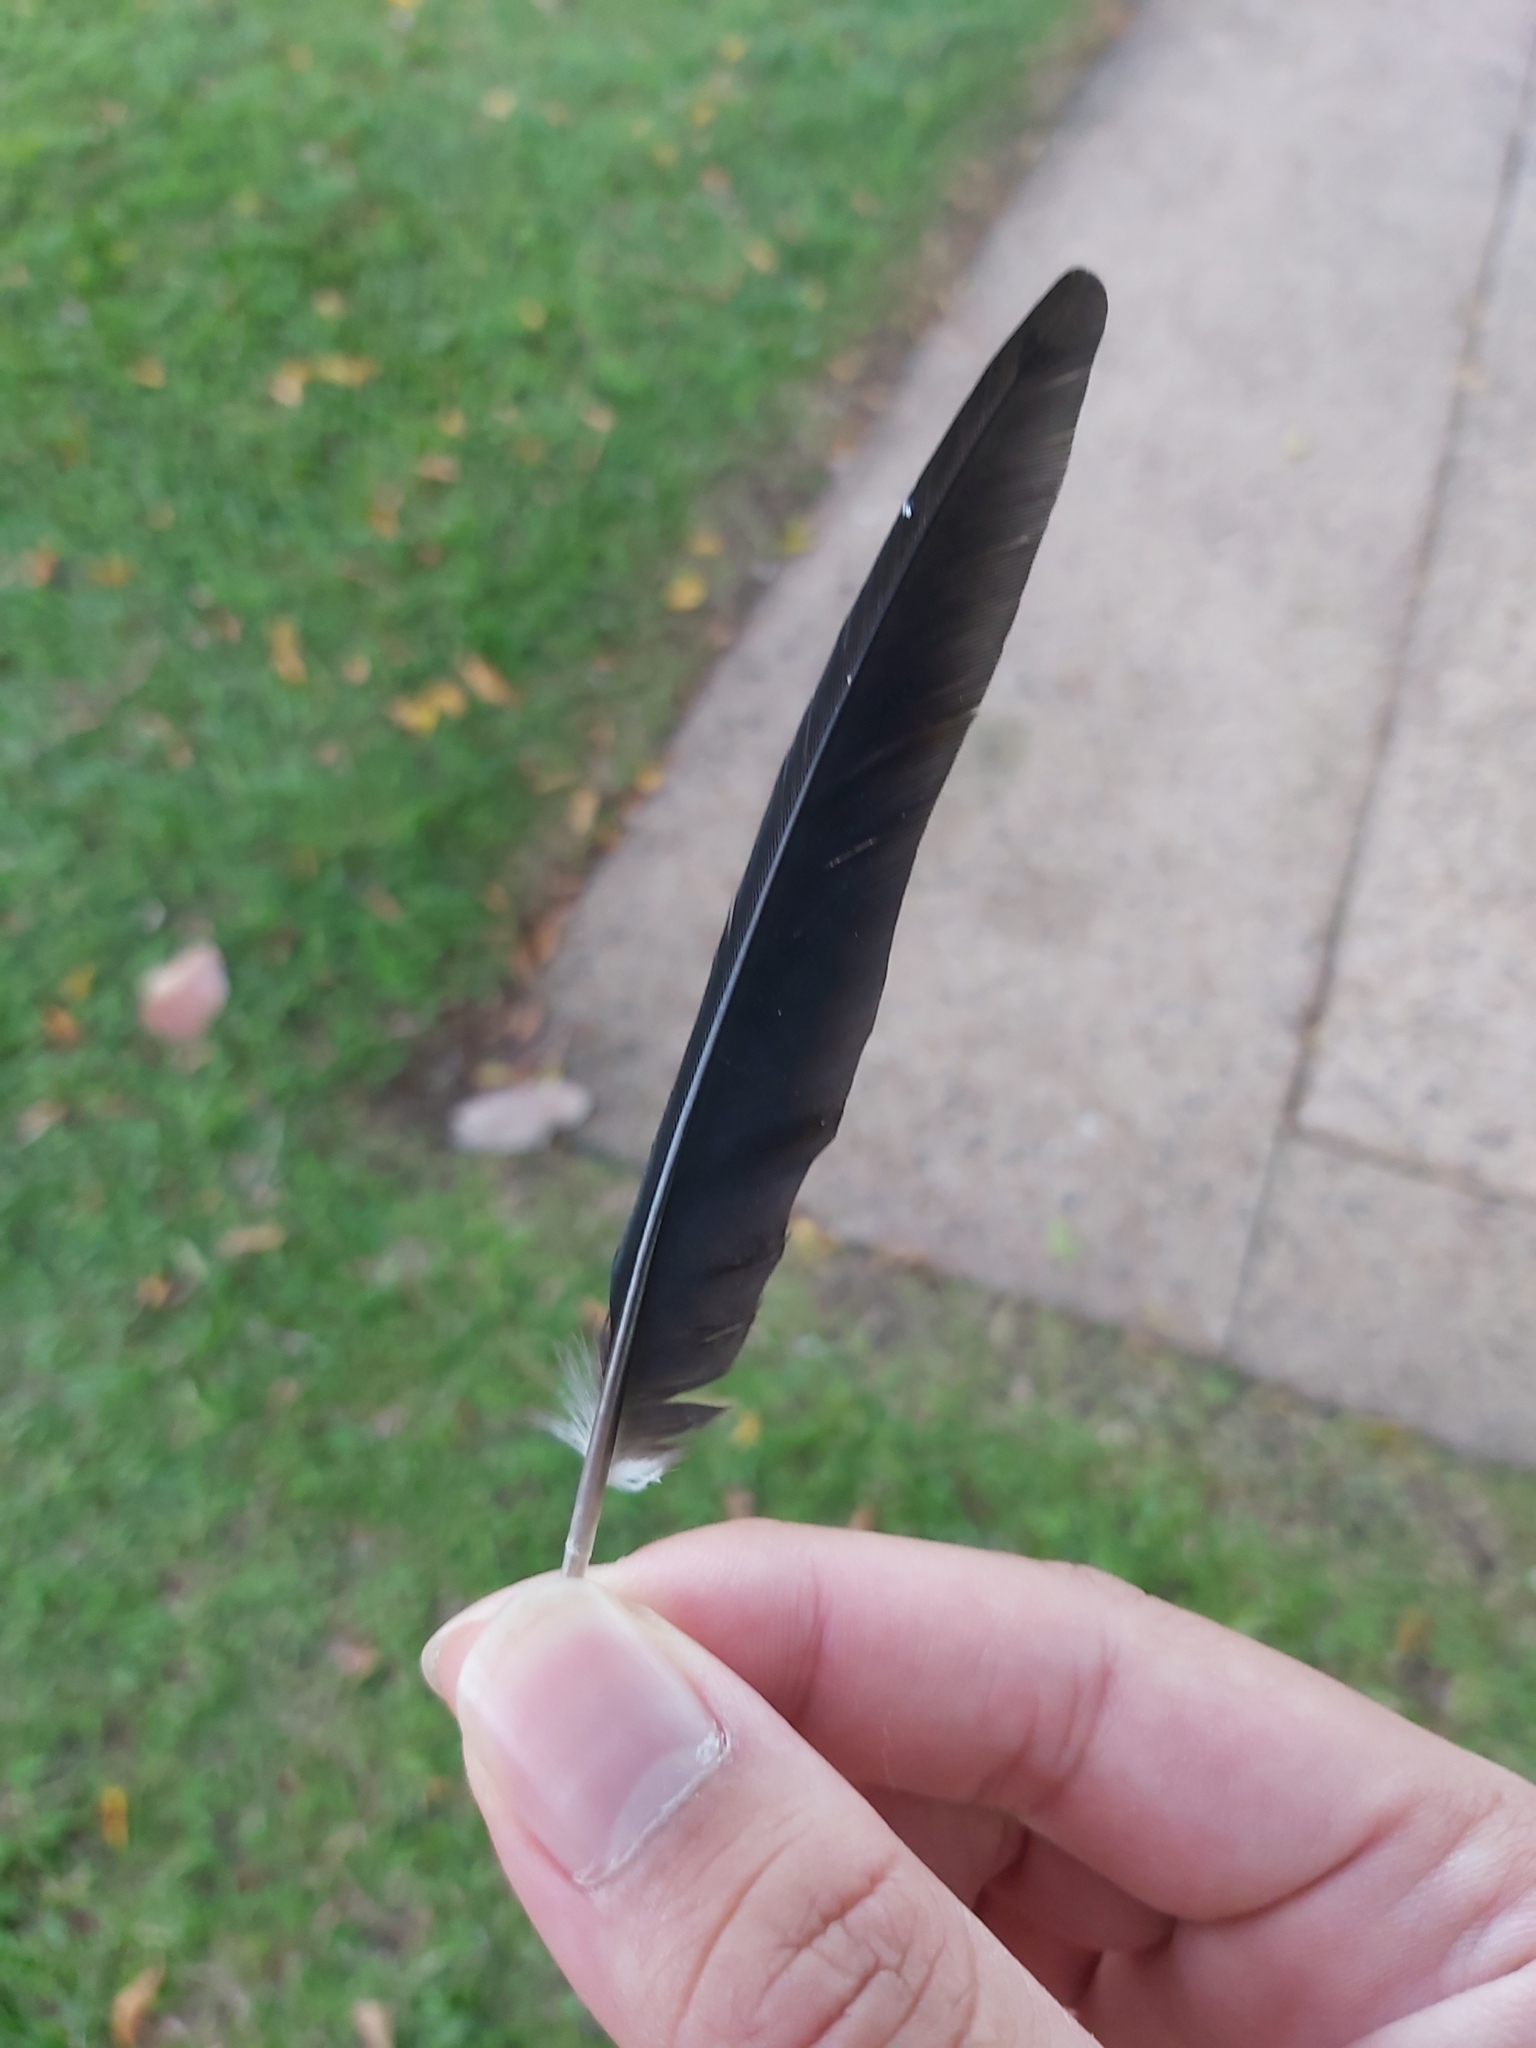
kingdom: Animalia
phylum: Chordata
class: Aves
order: Passeriformes
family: Monarchidae
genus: Grallina
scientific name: Grallina cyanoleuca
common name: Magpie-lark
